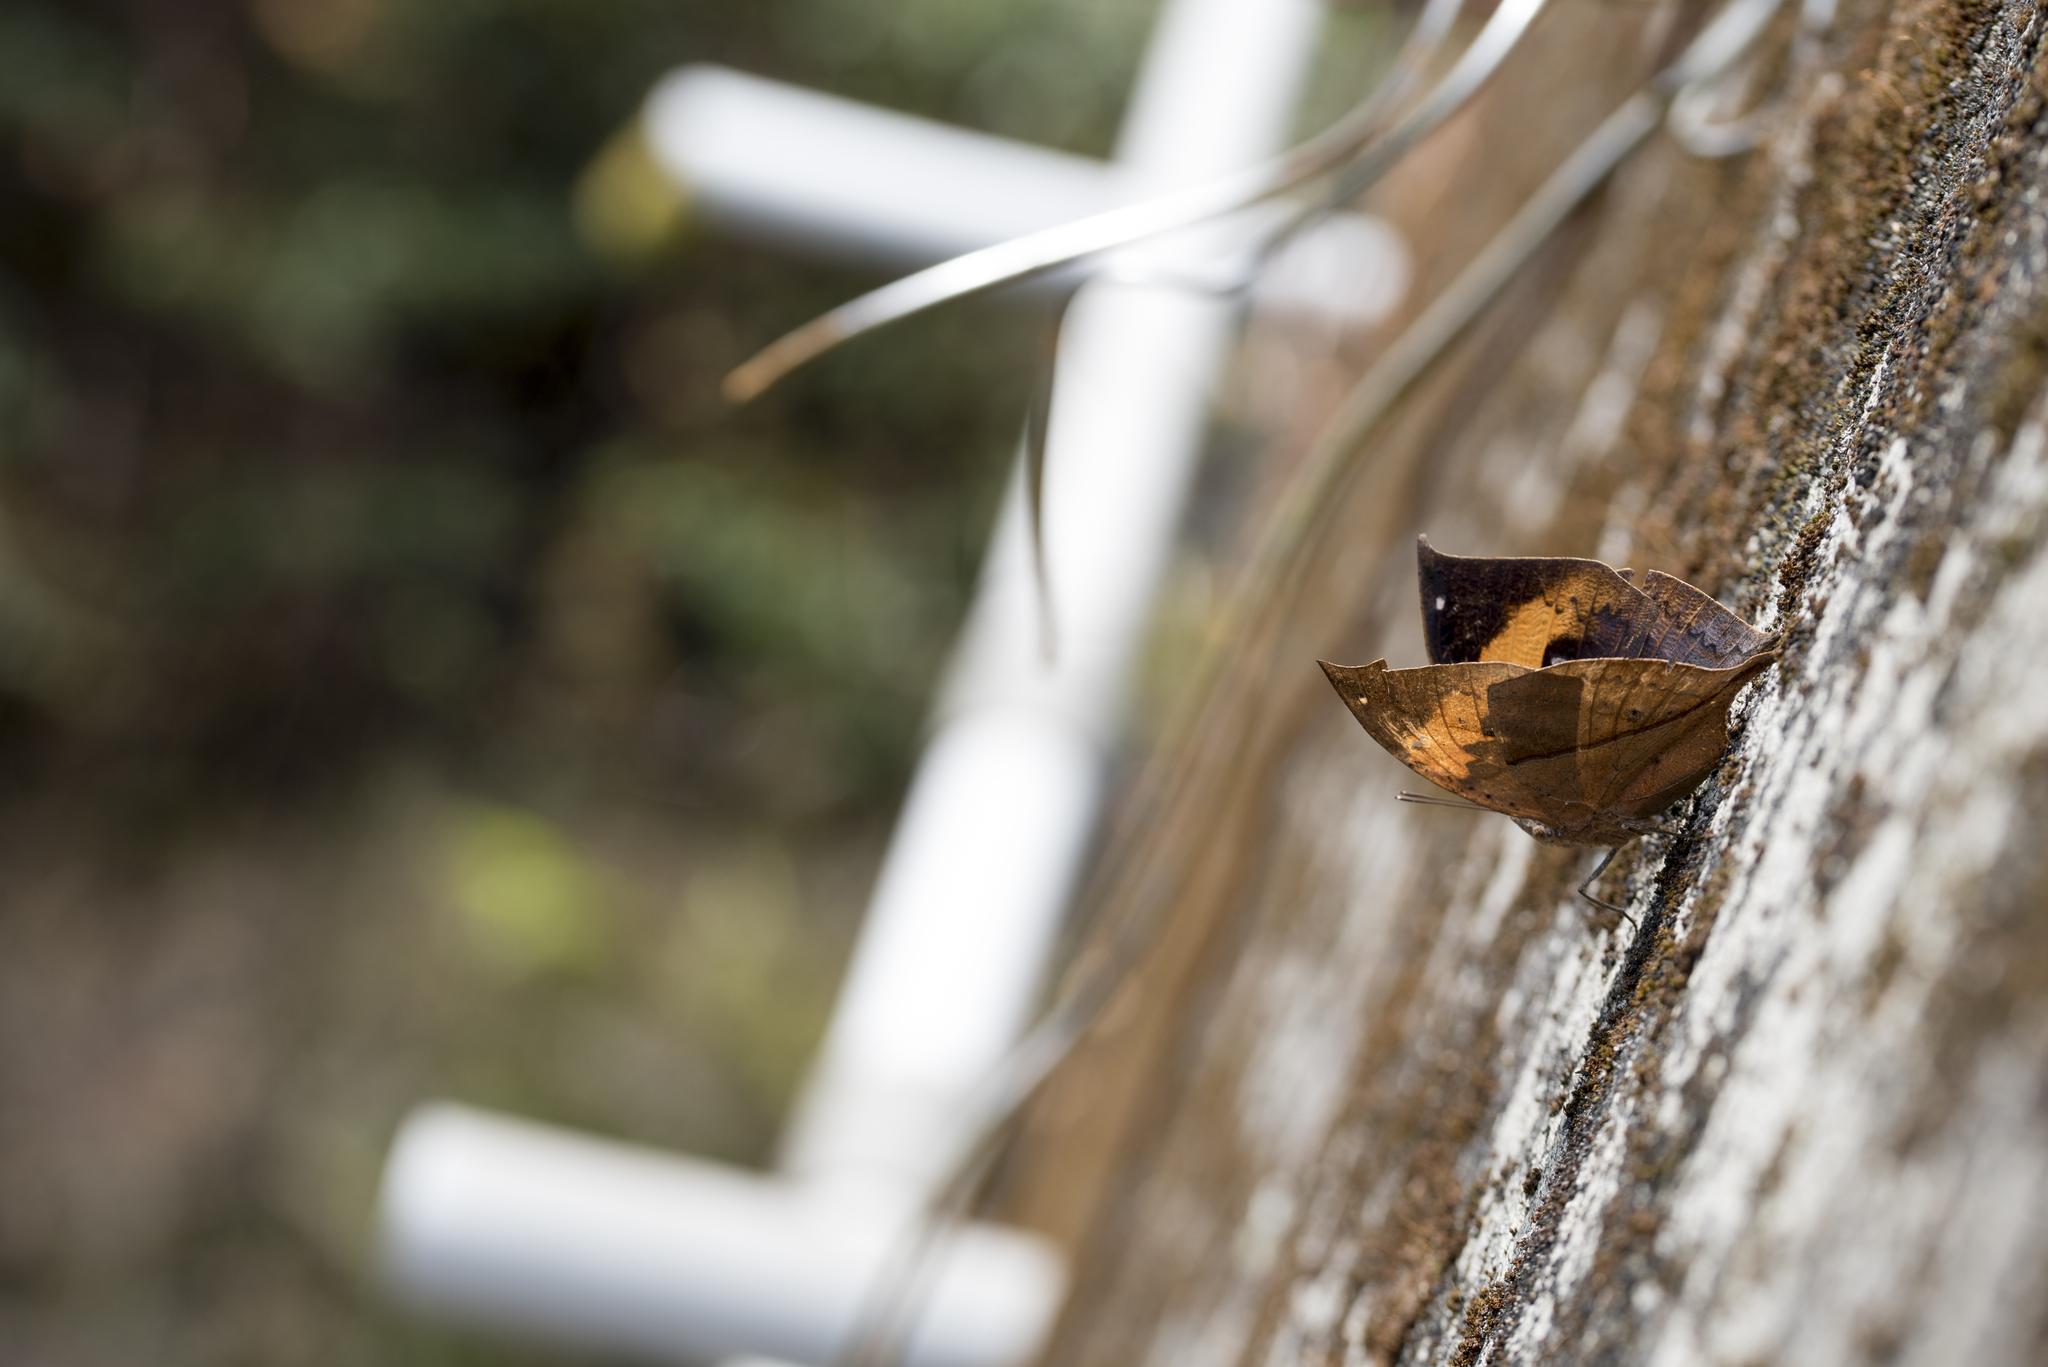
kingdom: Animalia
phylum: Arthropoda
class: Insecta
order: Lepidoptera
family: Nymphalidae
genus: Kallima
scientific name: Kallima inachus
